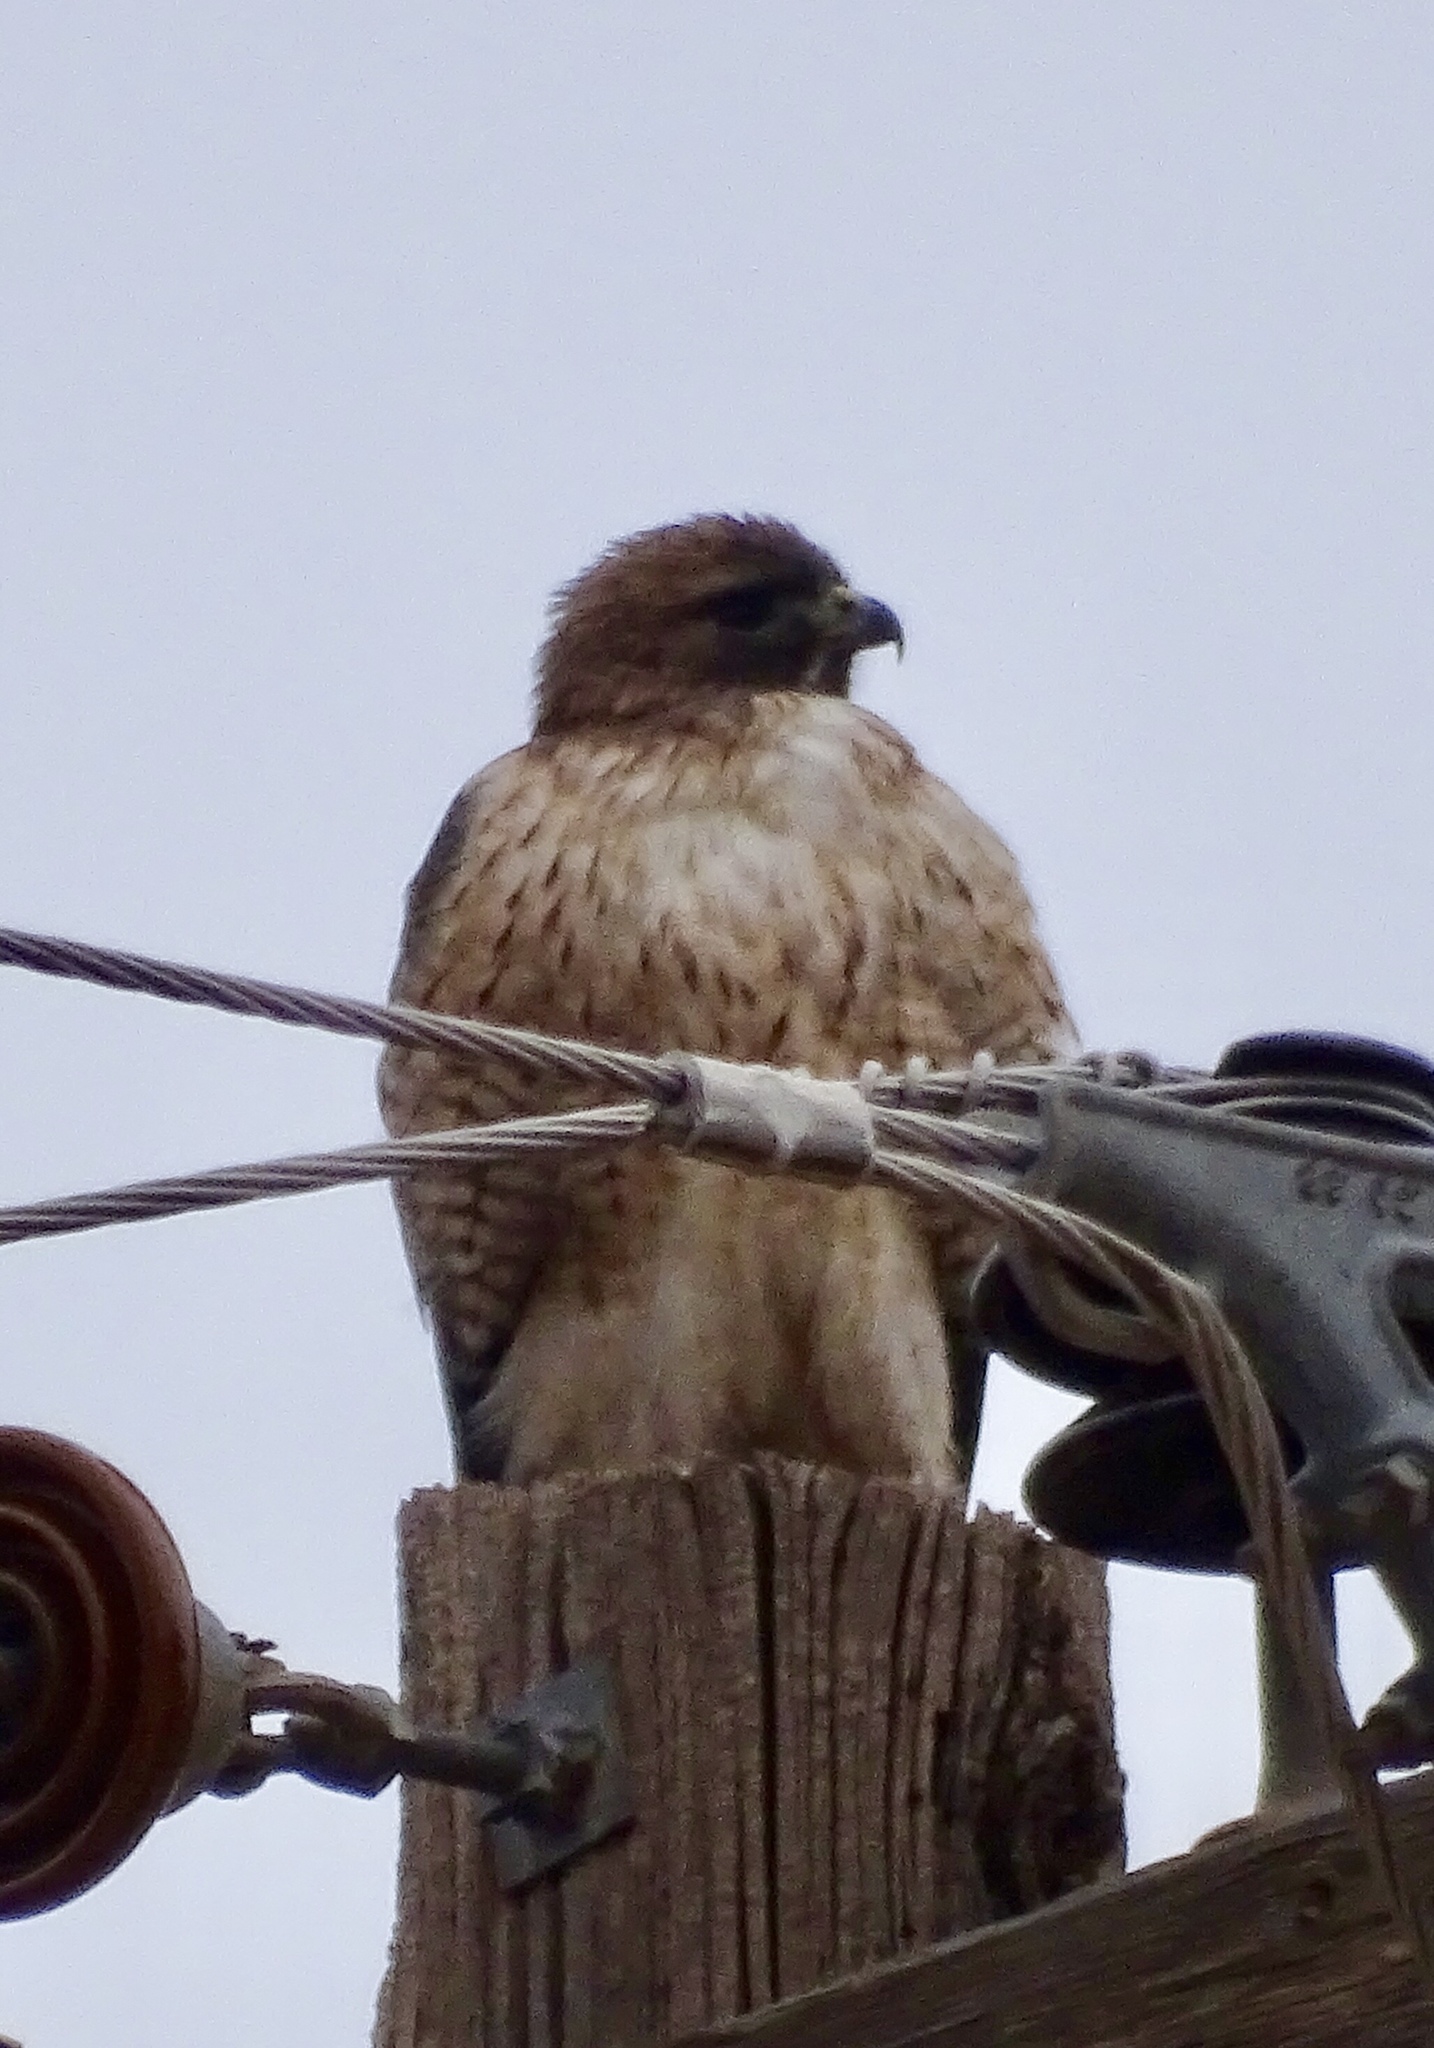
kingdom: Animalia
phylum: Chordata
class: Aves
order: Accipitriformes
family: Accipitridae
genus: Buteo
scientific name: Buteo jamaicensis
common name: Red-tailed hawk
